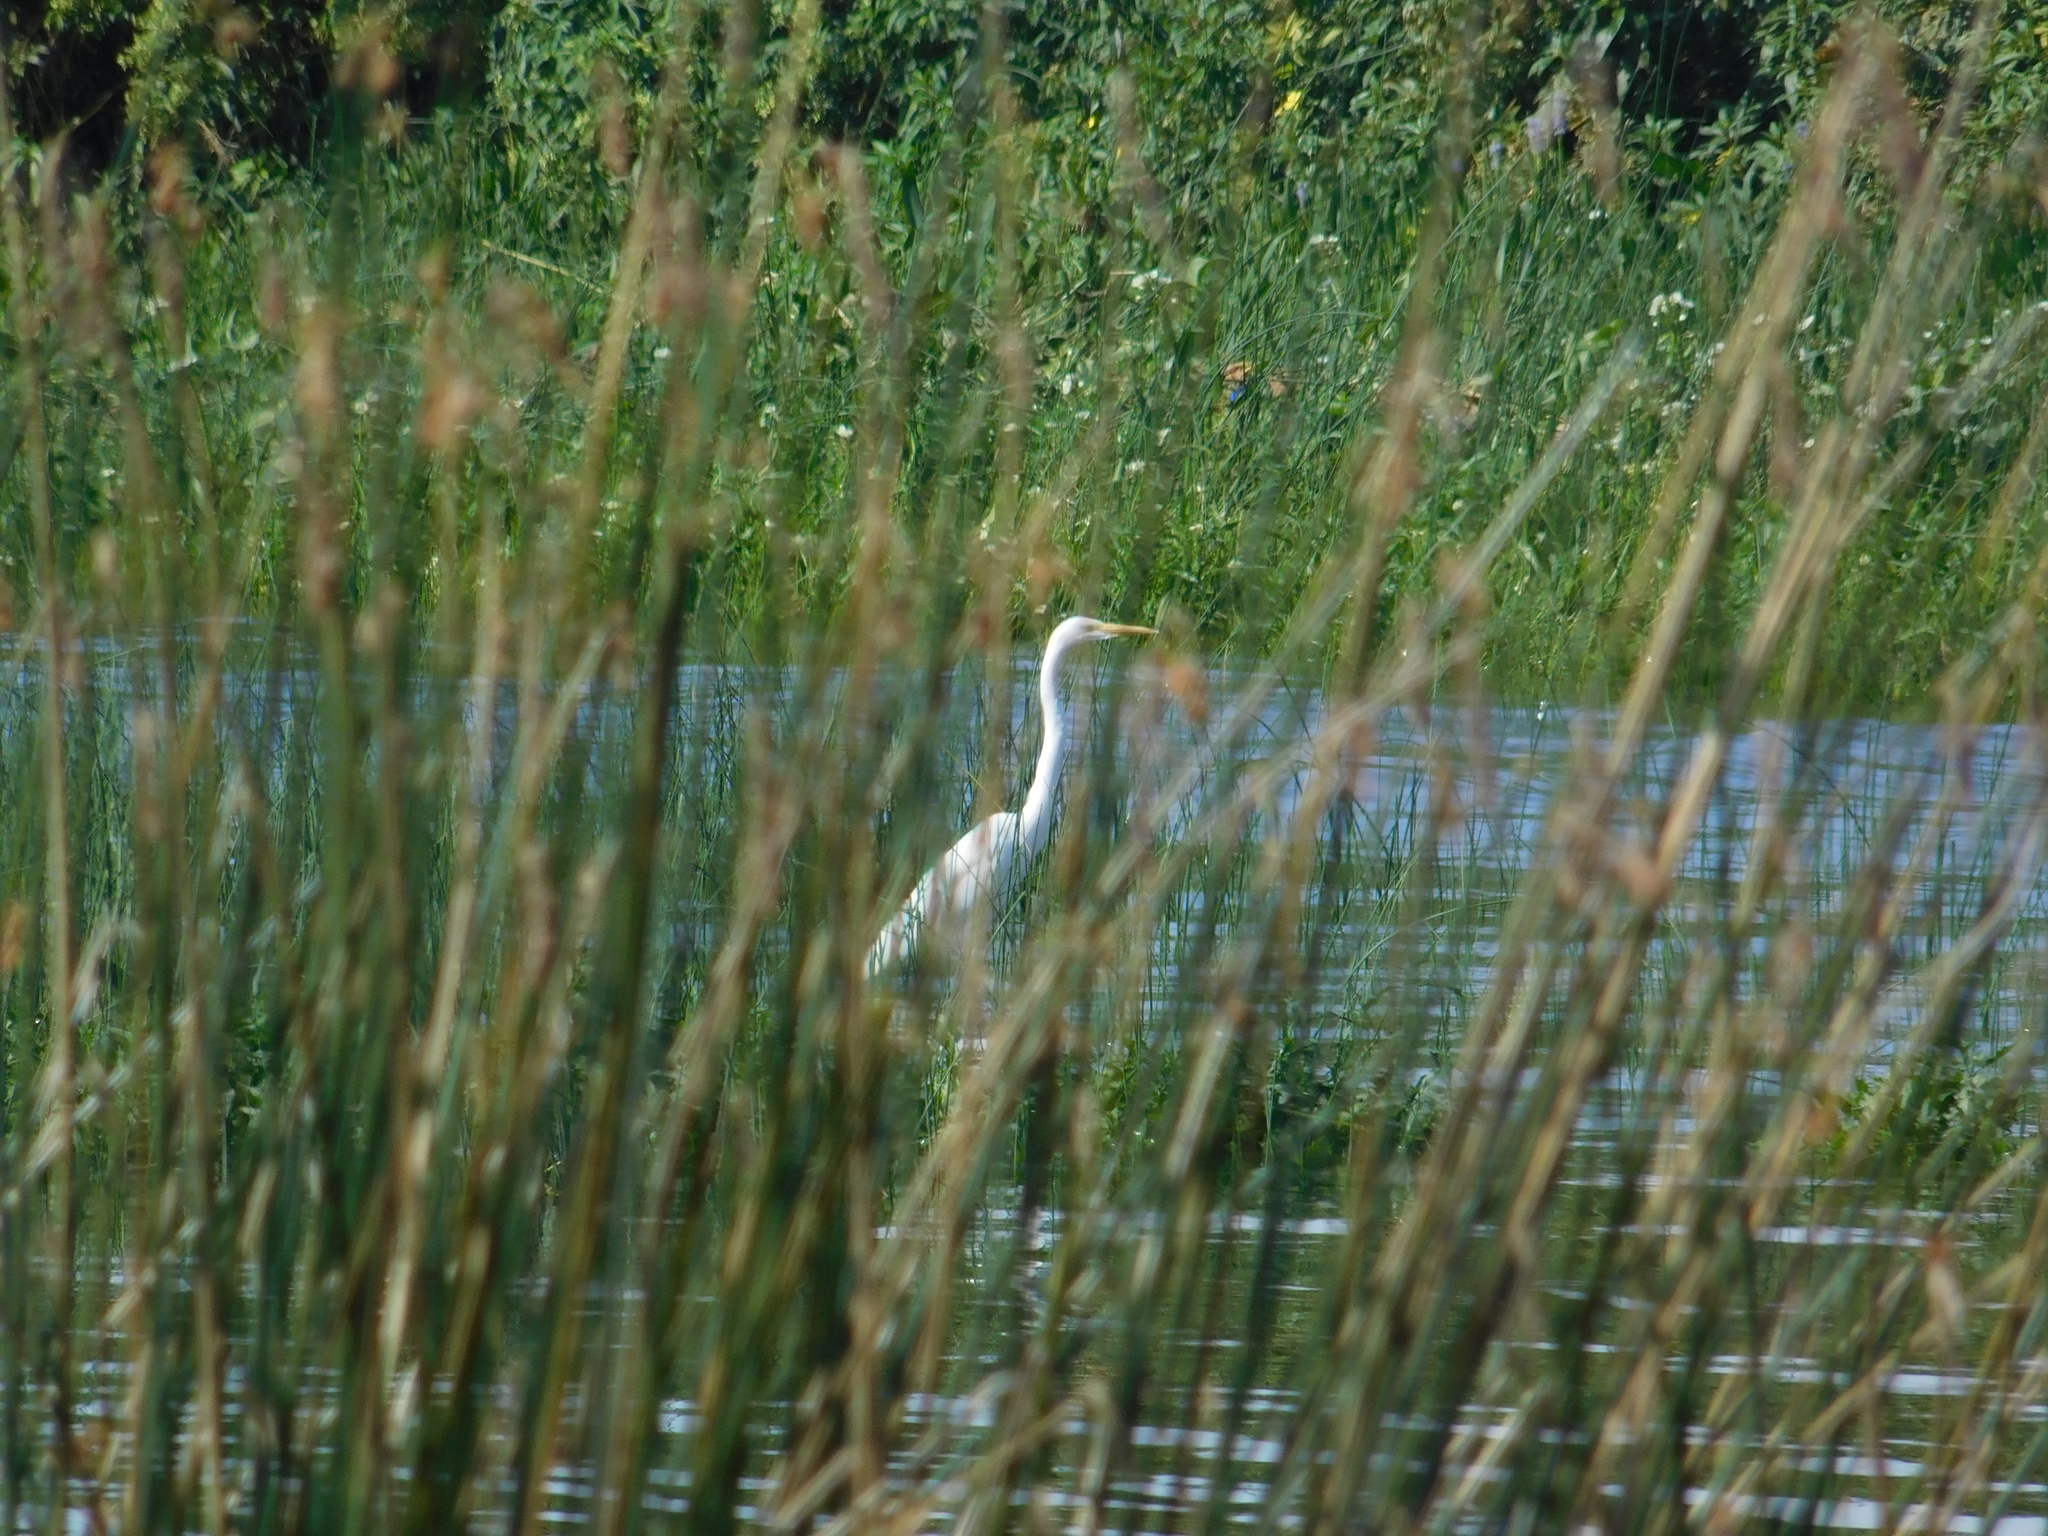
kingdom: Animalia
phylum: Chordata
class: Aves
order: Pelecaniformes
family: Ardeidae
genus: Ardea
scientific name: Ardea alba
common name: Great egret
